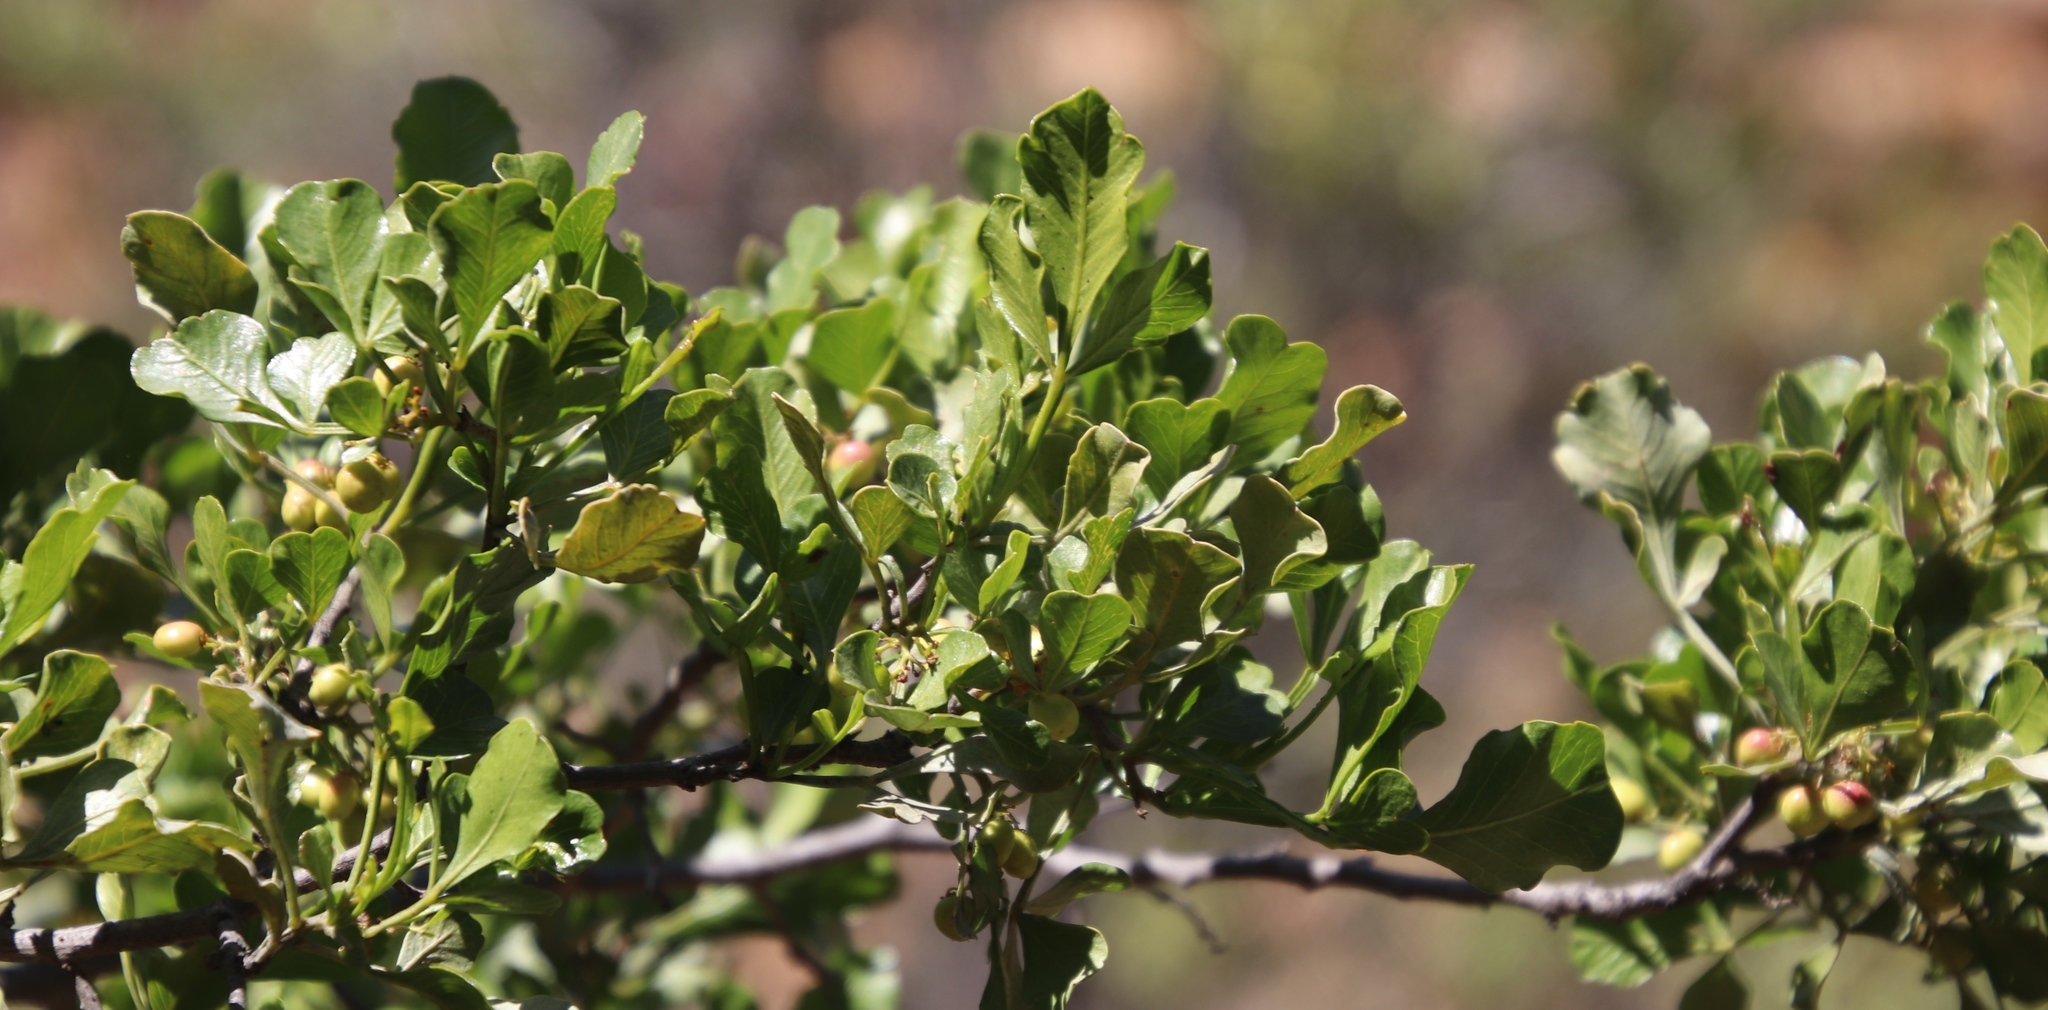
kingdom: Plantae
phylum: Tracheophyta
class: Magnoliopsida
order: Sapindales
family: Anacardiaceae
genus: Searsia
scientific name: Searsia undulata
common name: Namaqua kunibush
